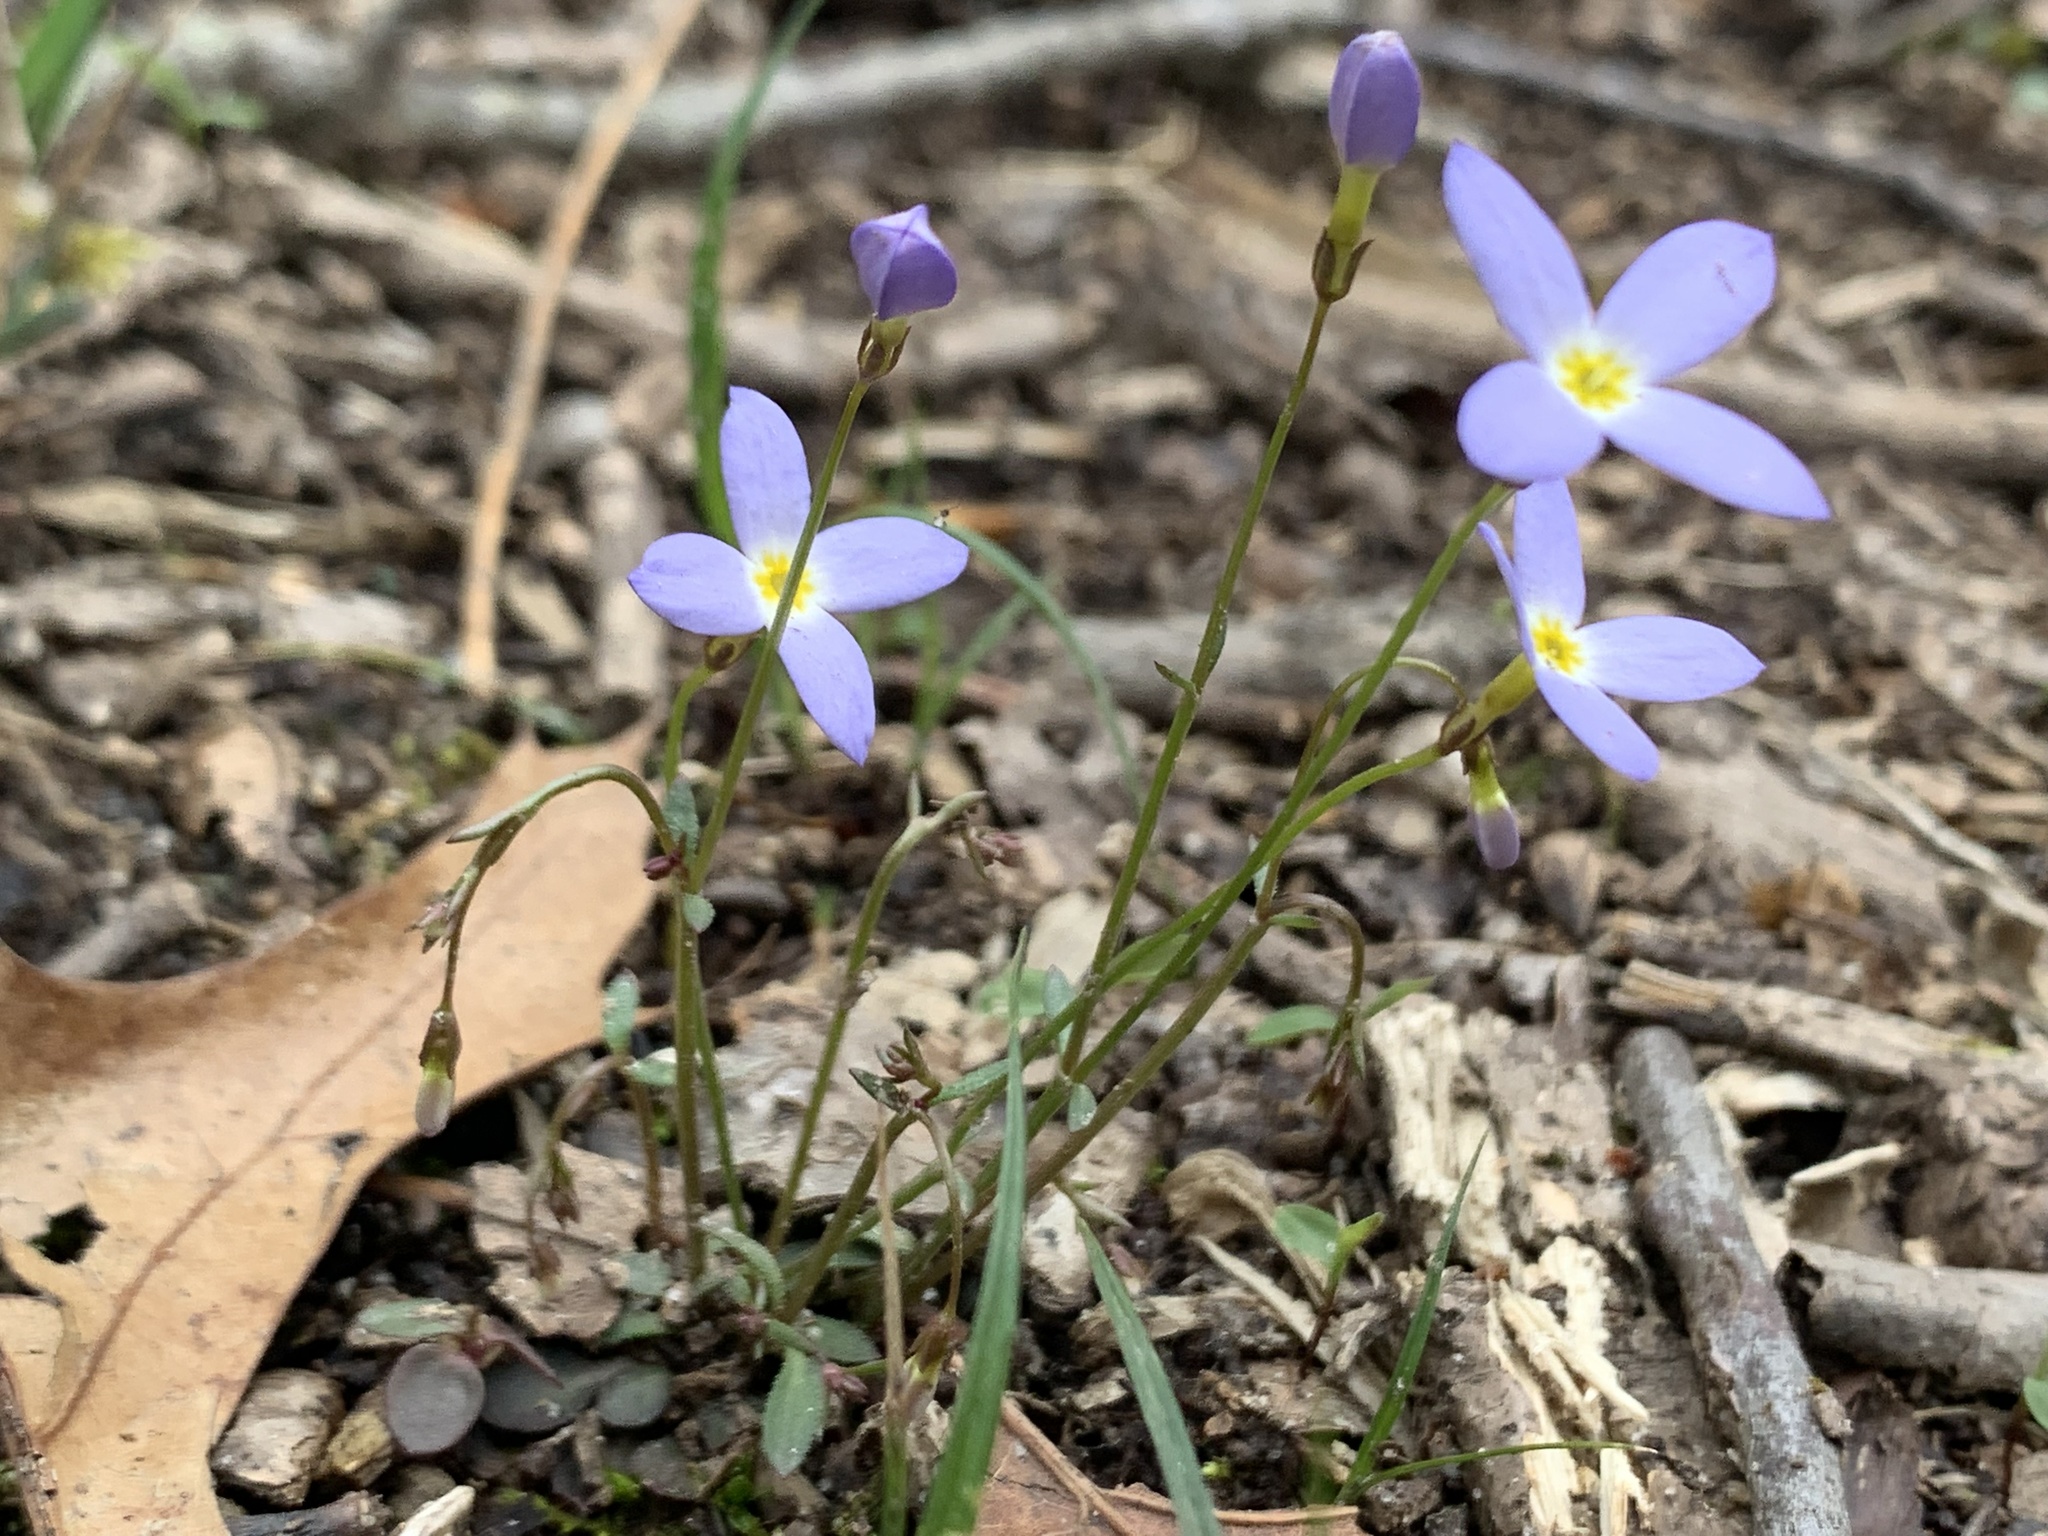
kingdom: Plantae
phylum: Tracheophyta
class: Magnoliopsida
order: Gentianales
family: Rubiaceae
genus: Houstonia
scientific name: Houstonia caerulea
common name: Bluets
